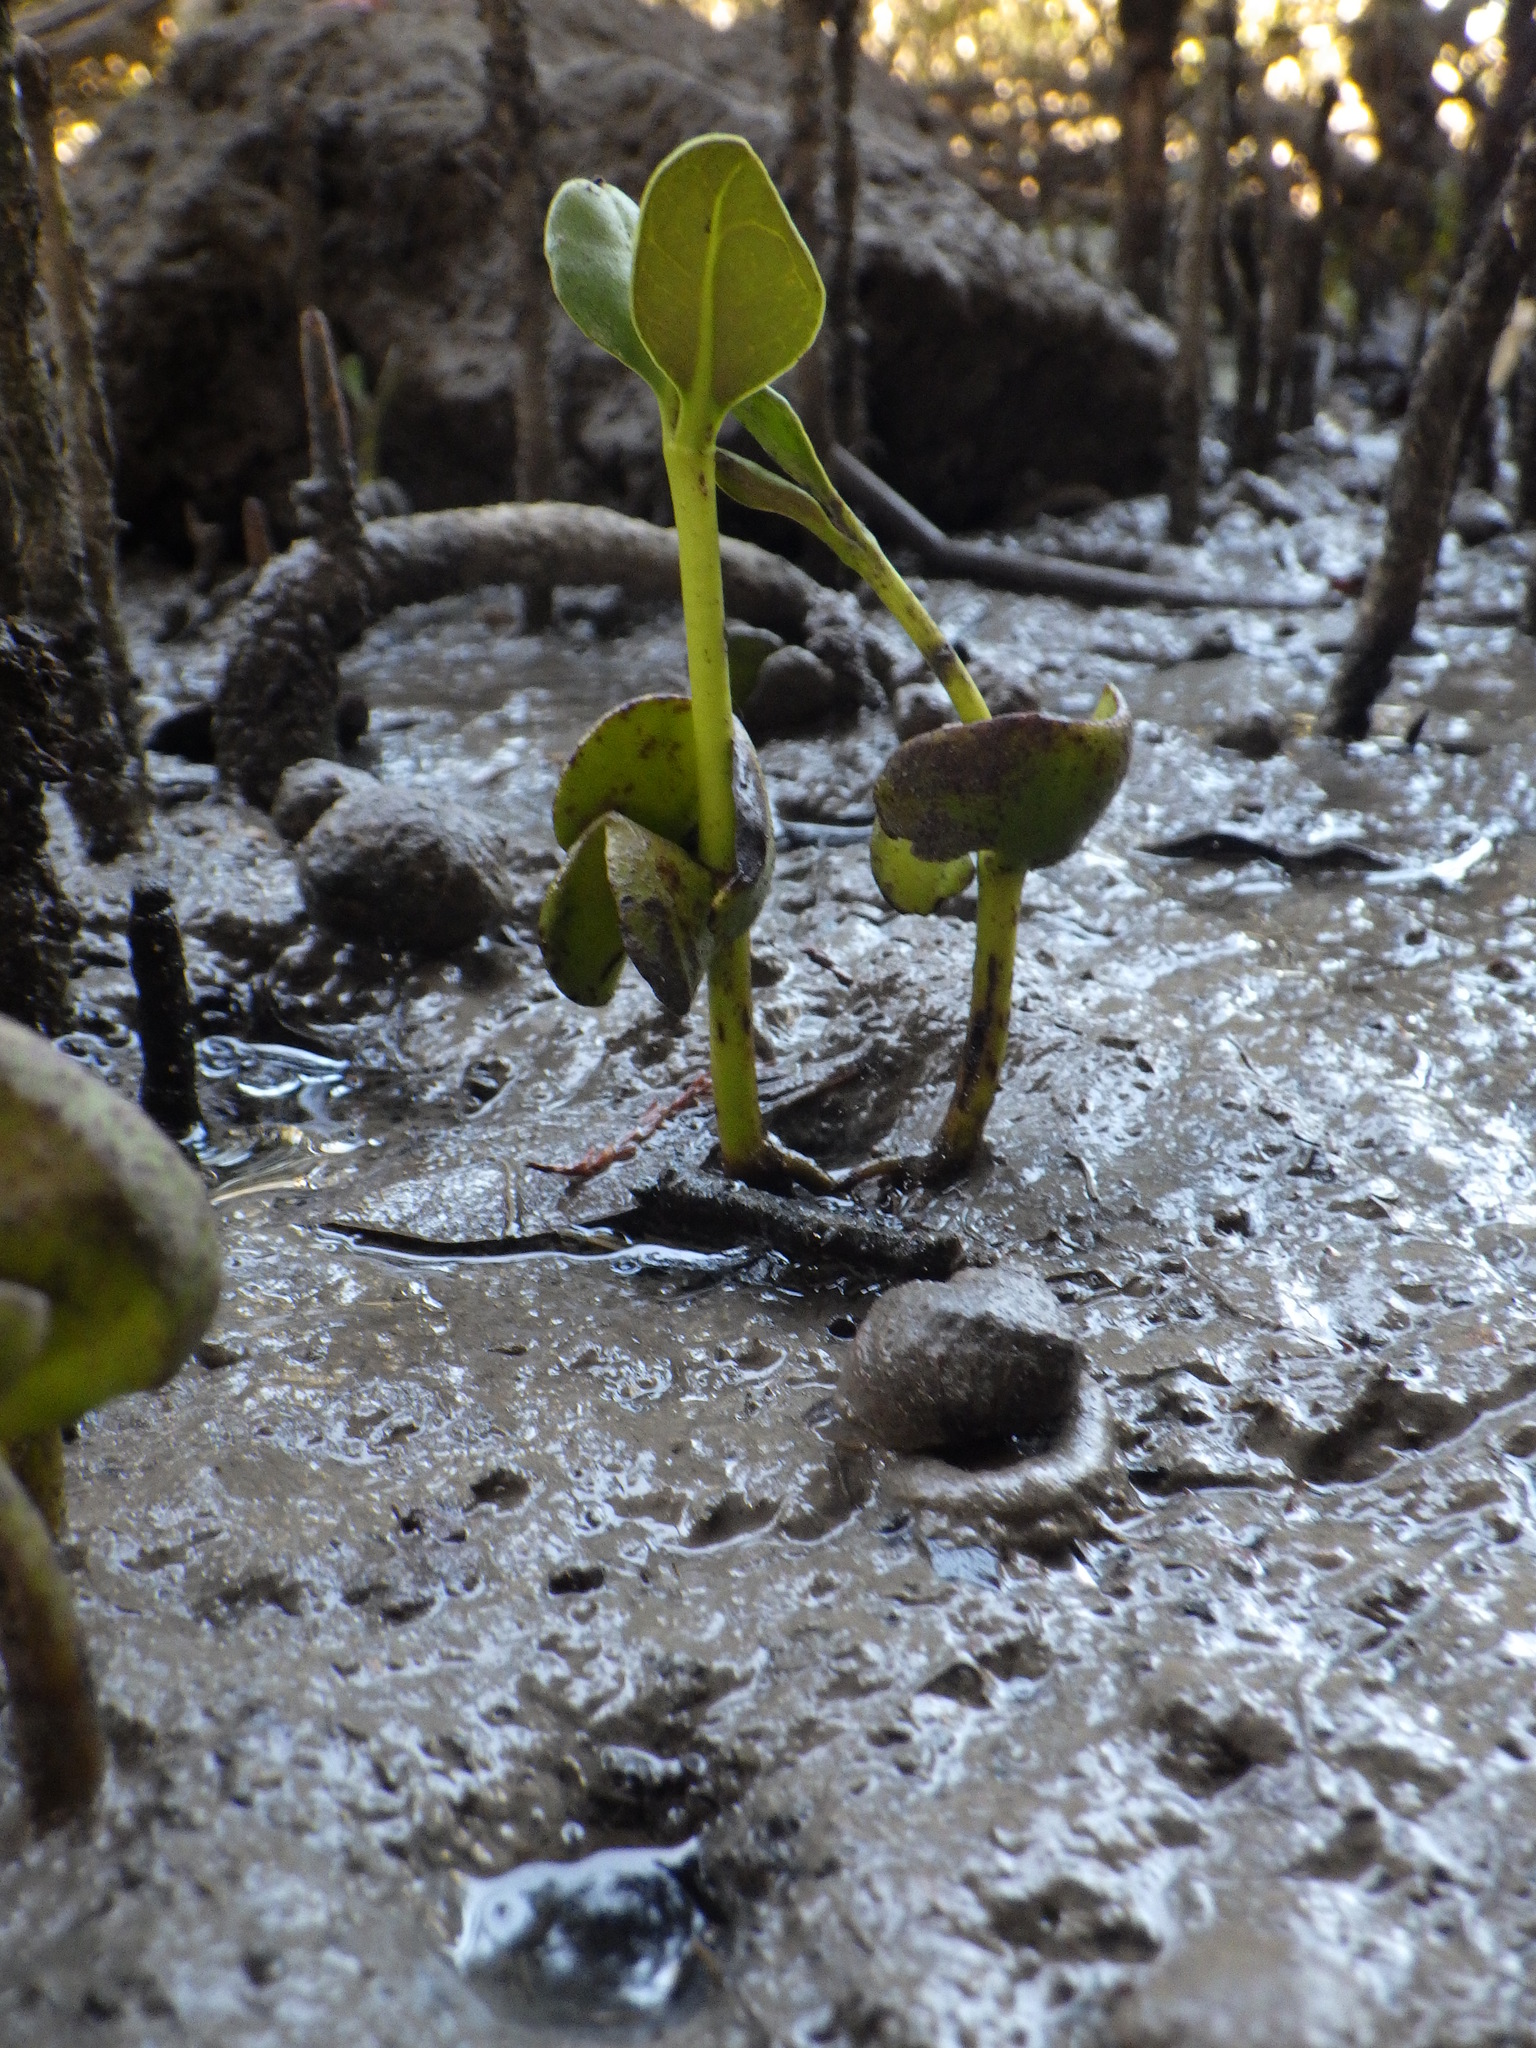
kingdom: Animalia
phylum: Mollusca
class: Gastropoda
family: Amphibolidae
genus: Amphibola
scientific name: Amphibola crenata
